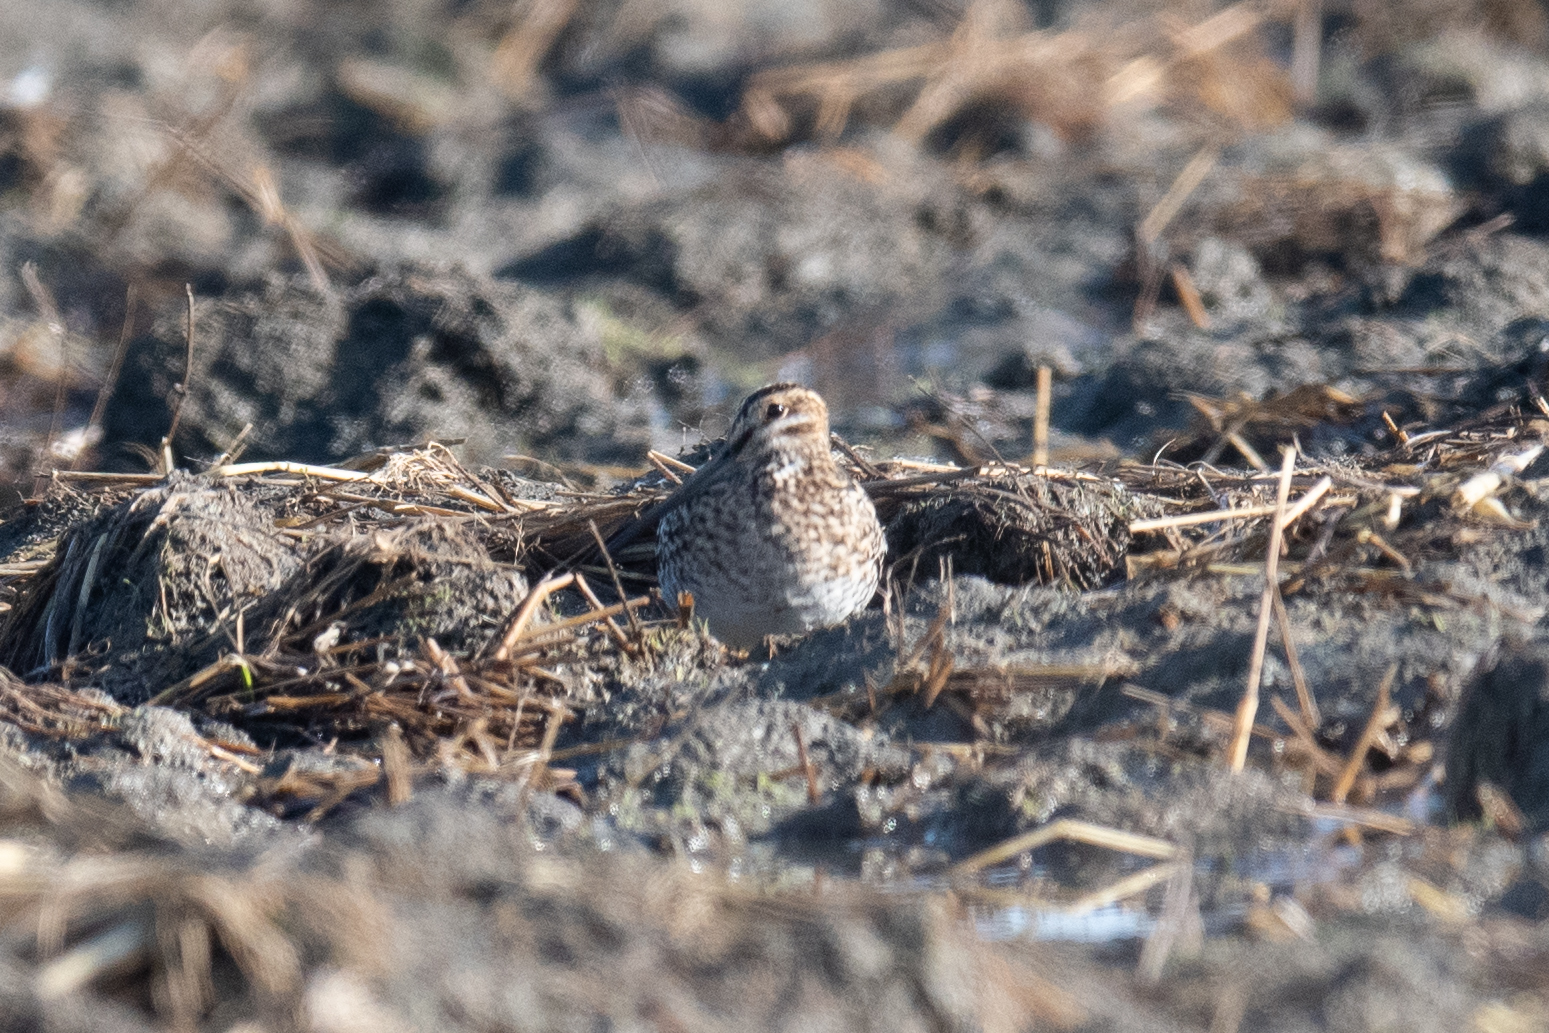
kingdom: Animalia
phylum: Chordata
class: Aves
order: Charadriiformes
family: Scolopacidae
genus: Gallinago
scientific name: Gallinago delicata
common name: Wilson's snipe
